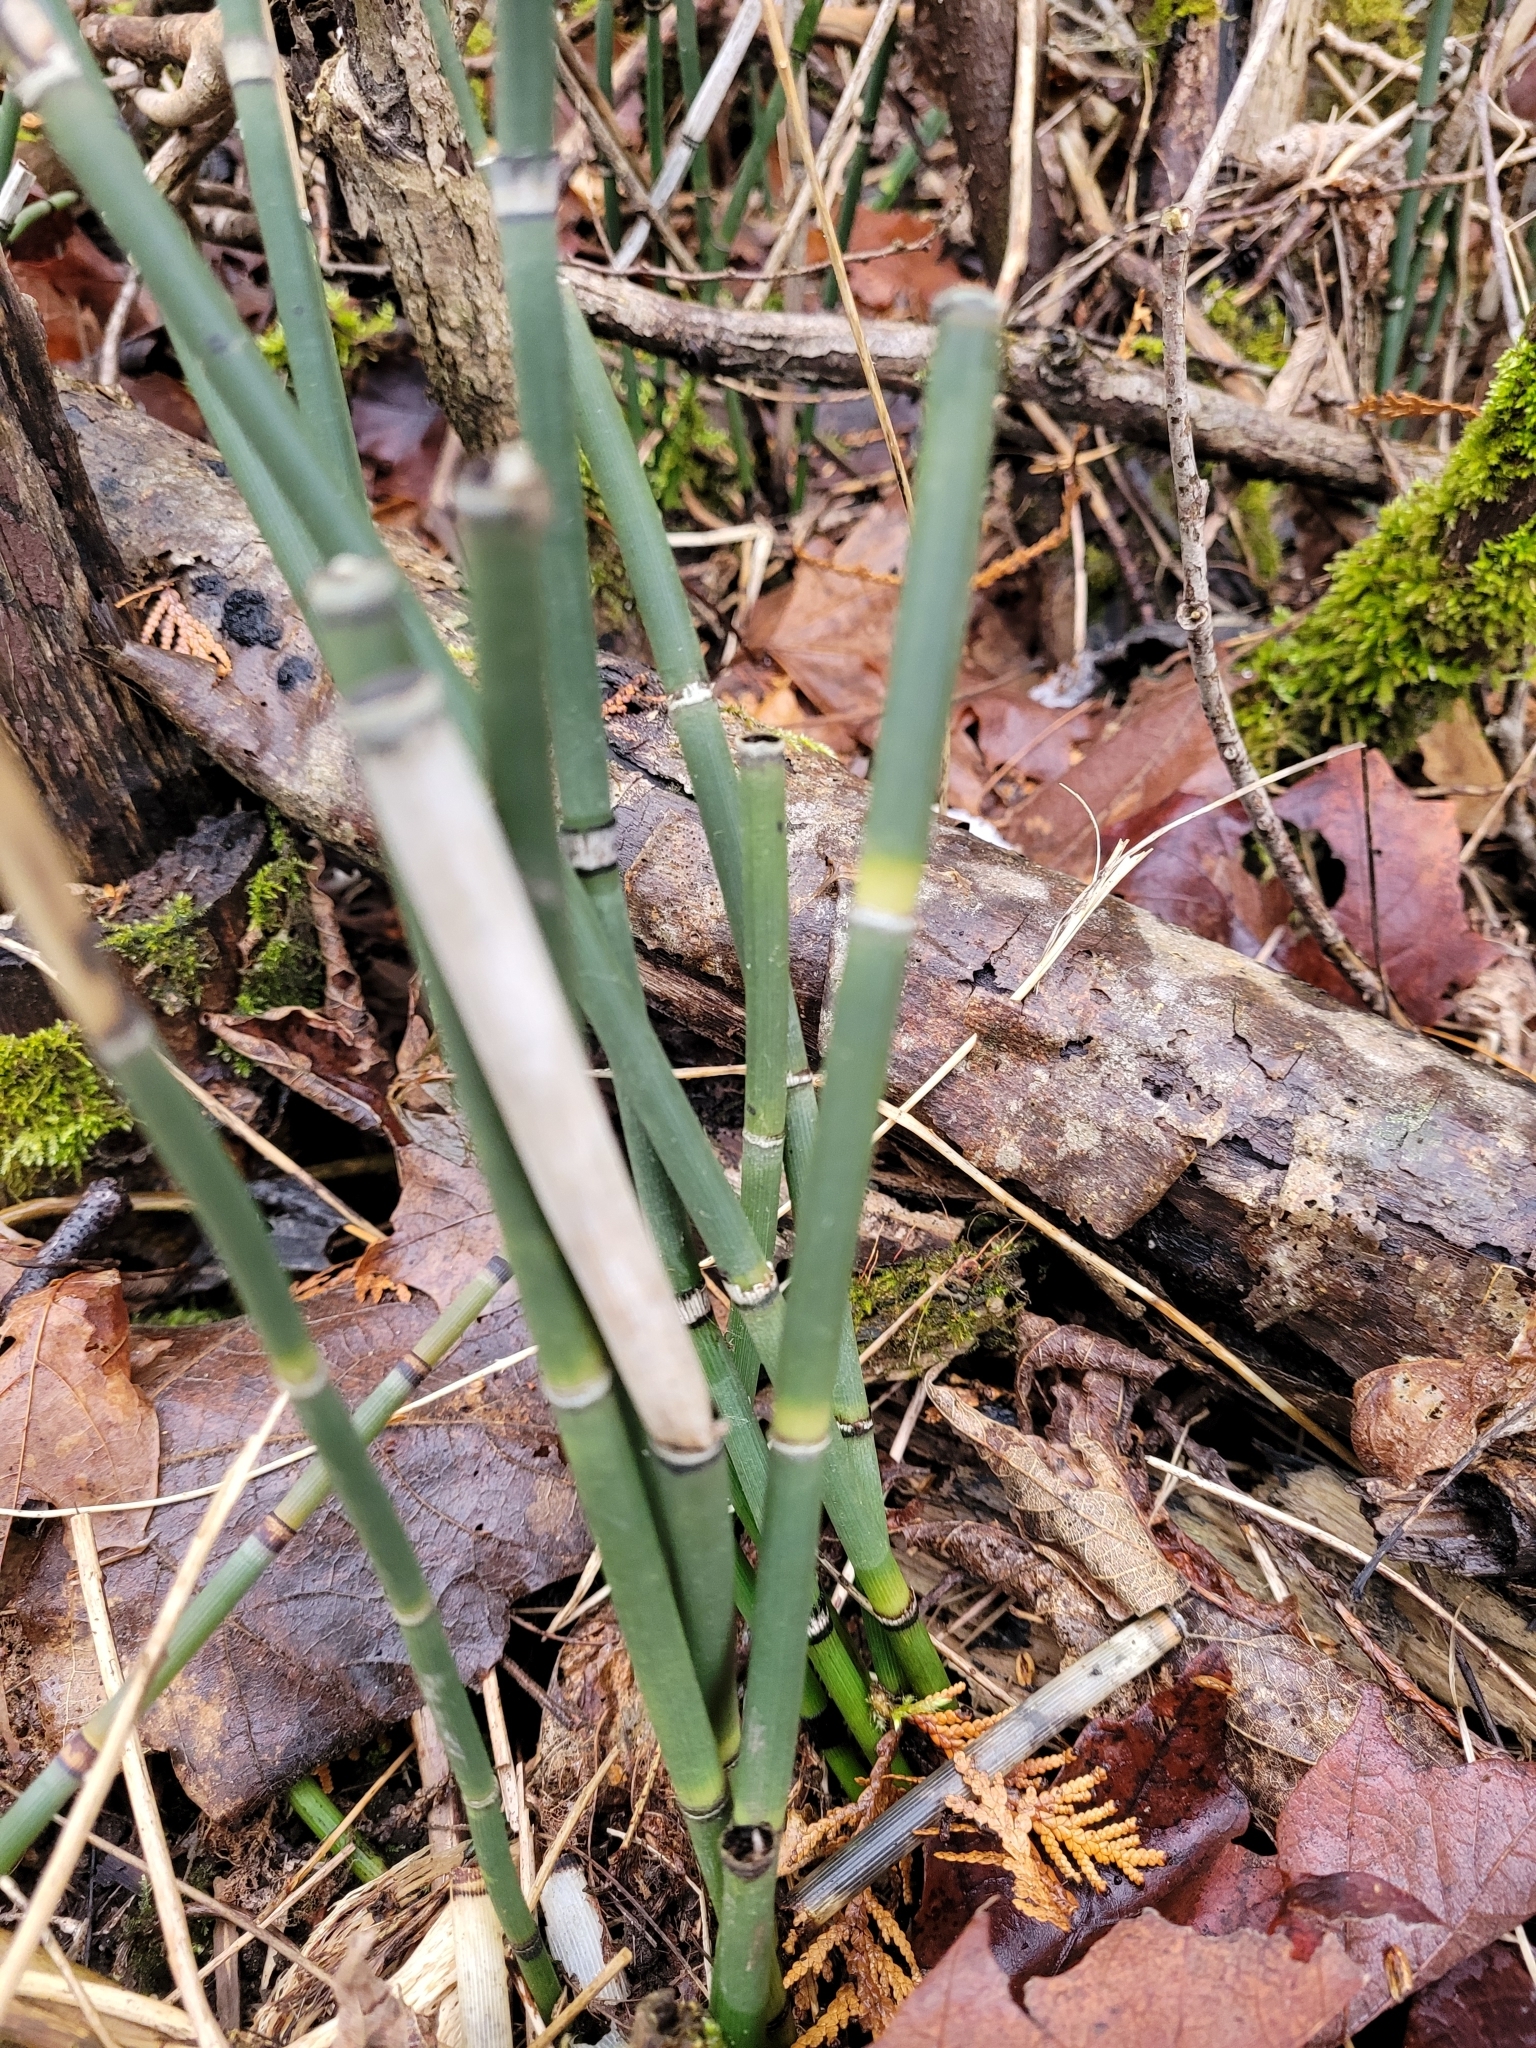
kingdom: Plantae
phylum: Tracheophyta
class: Polypodiopsida
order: Equisetales
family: Equisetaceae
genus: Equisetum
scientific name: Equisetum hyemale
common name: Rough horsetail
